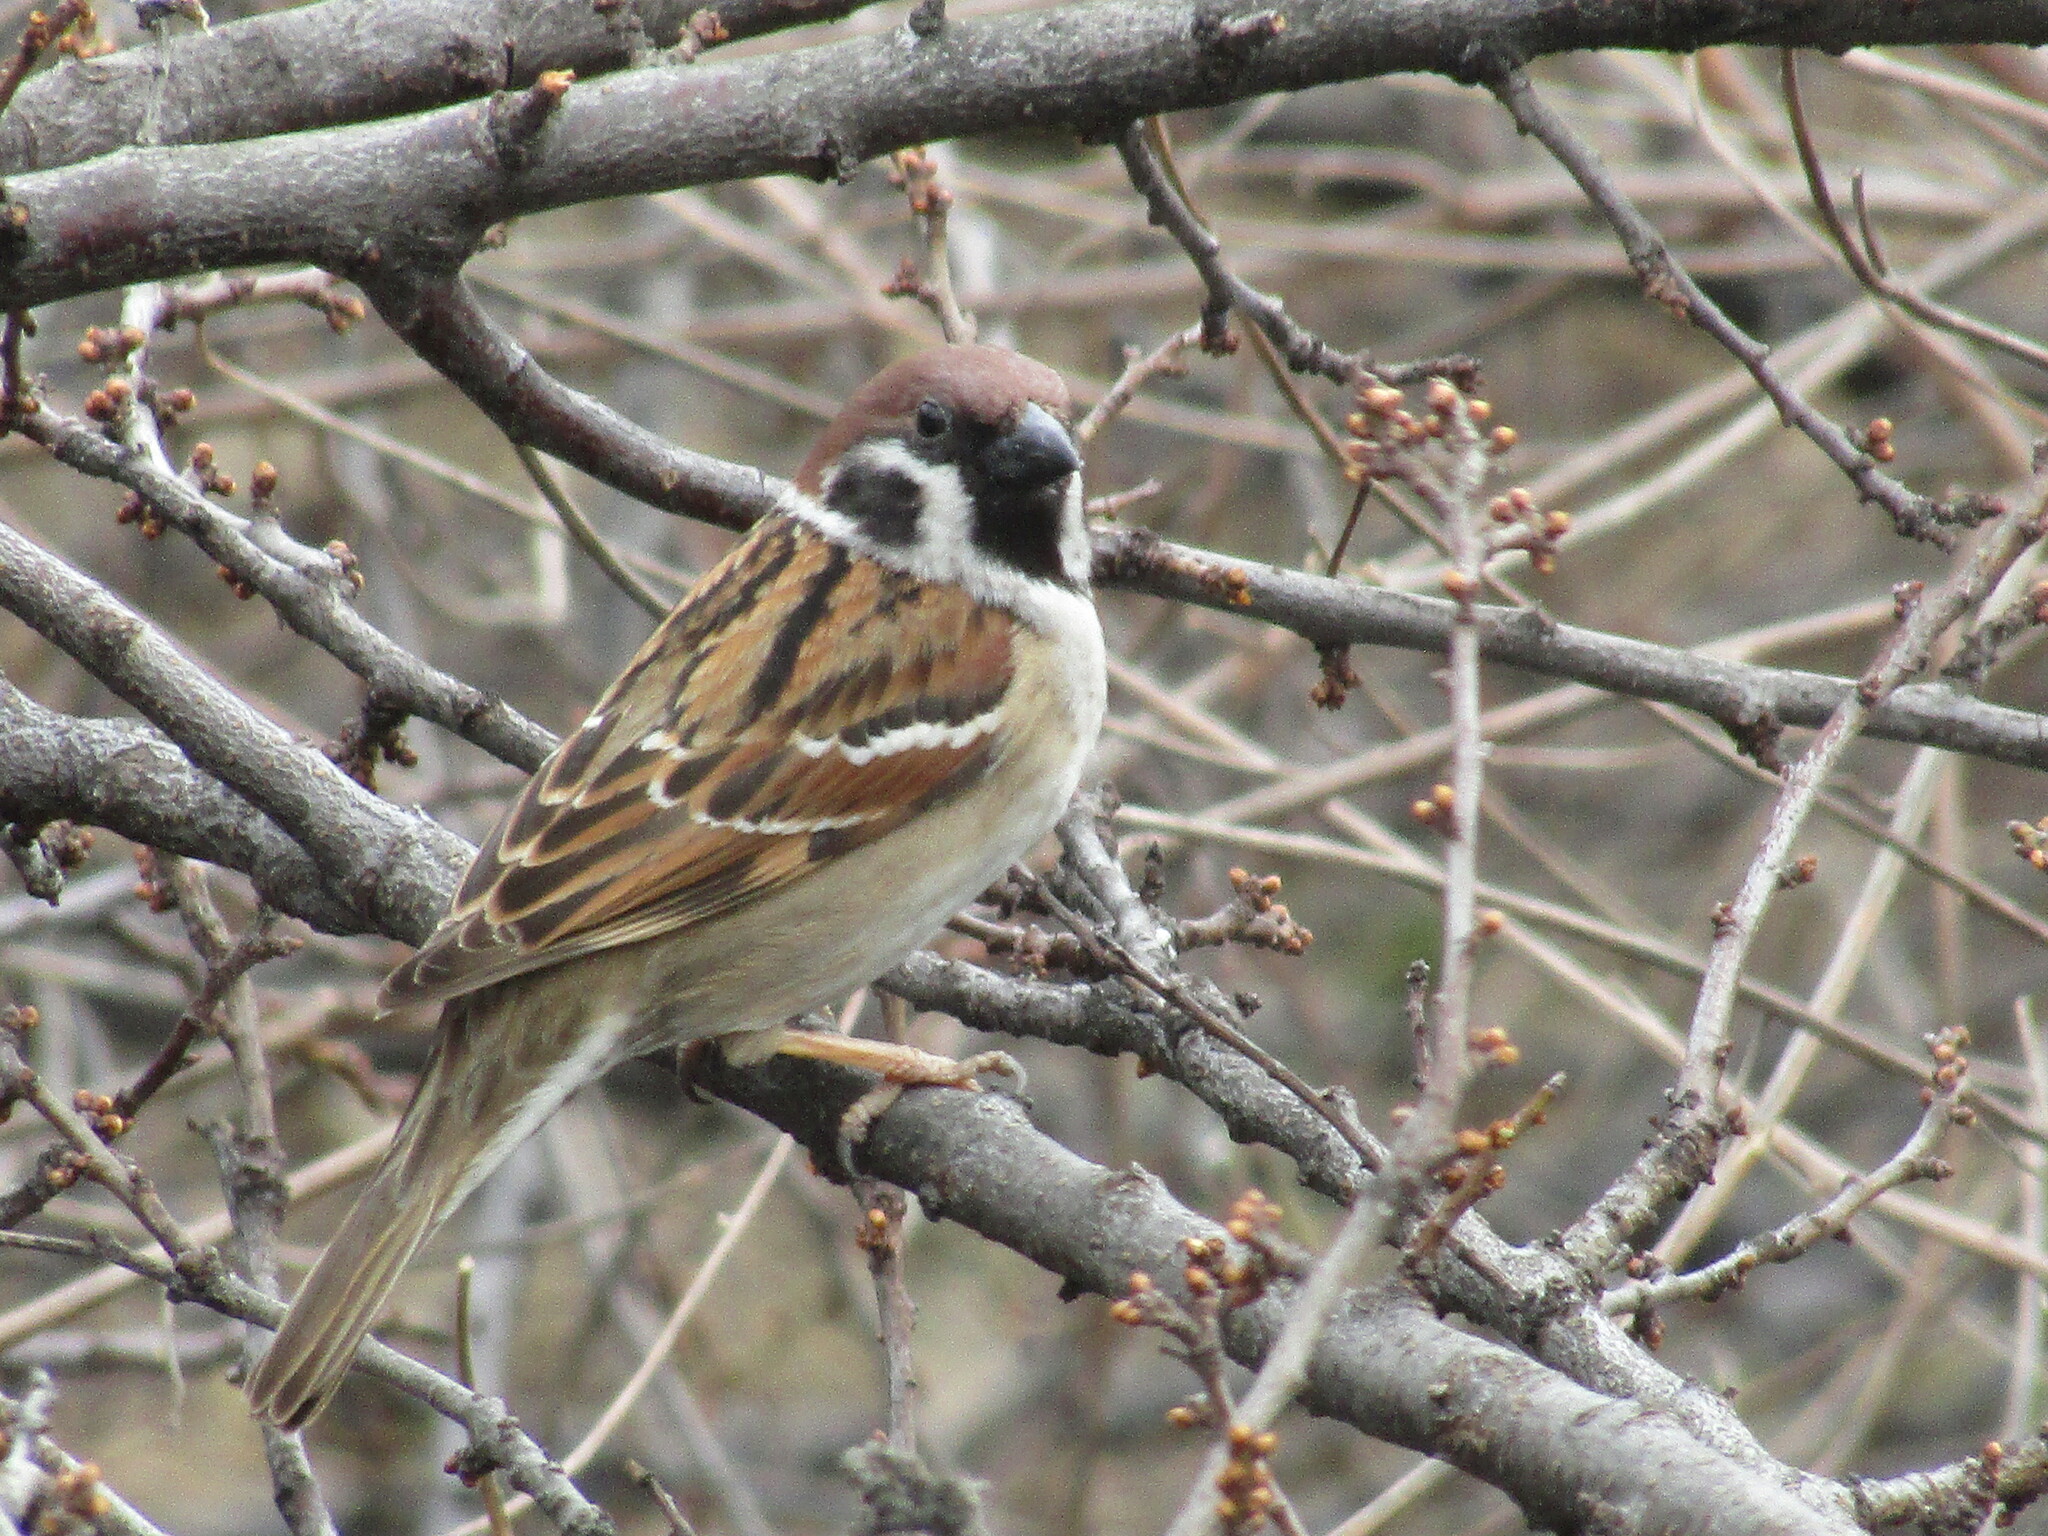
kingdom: Animalia
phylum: Chordata
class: Aves
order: Passeriformes
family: Passeridae
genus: Passer
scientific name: Passer montanus
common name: Eurasian tree sparrow
